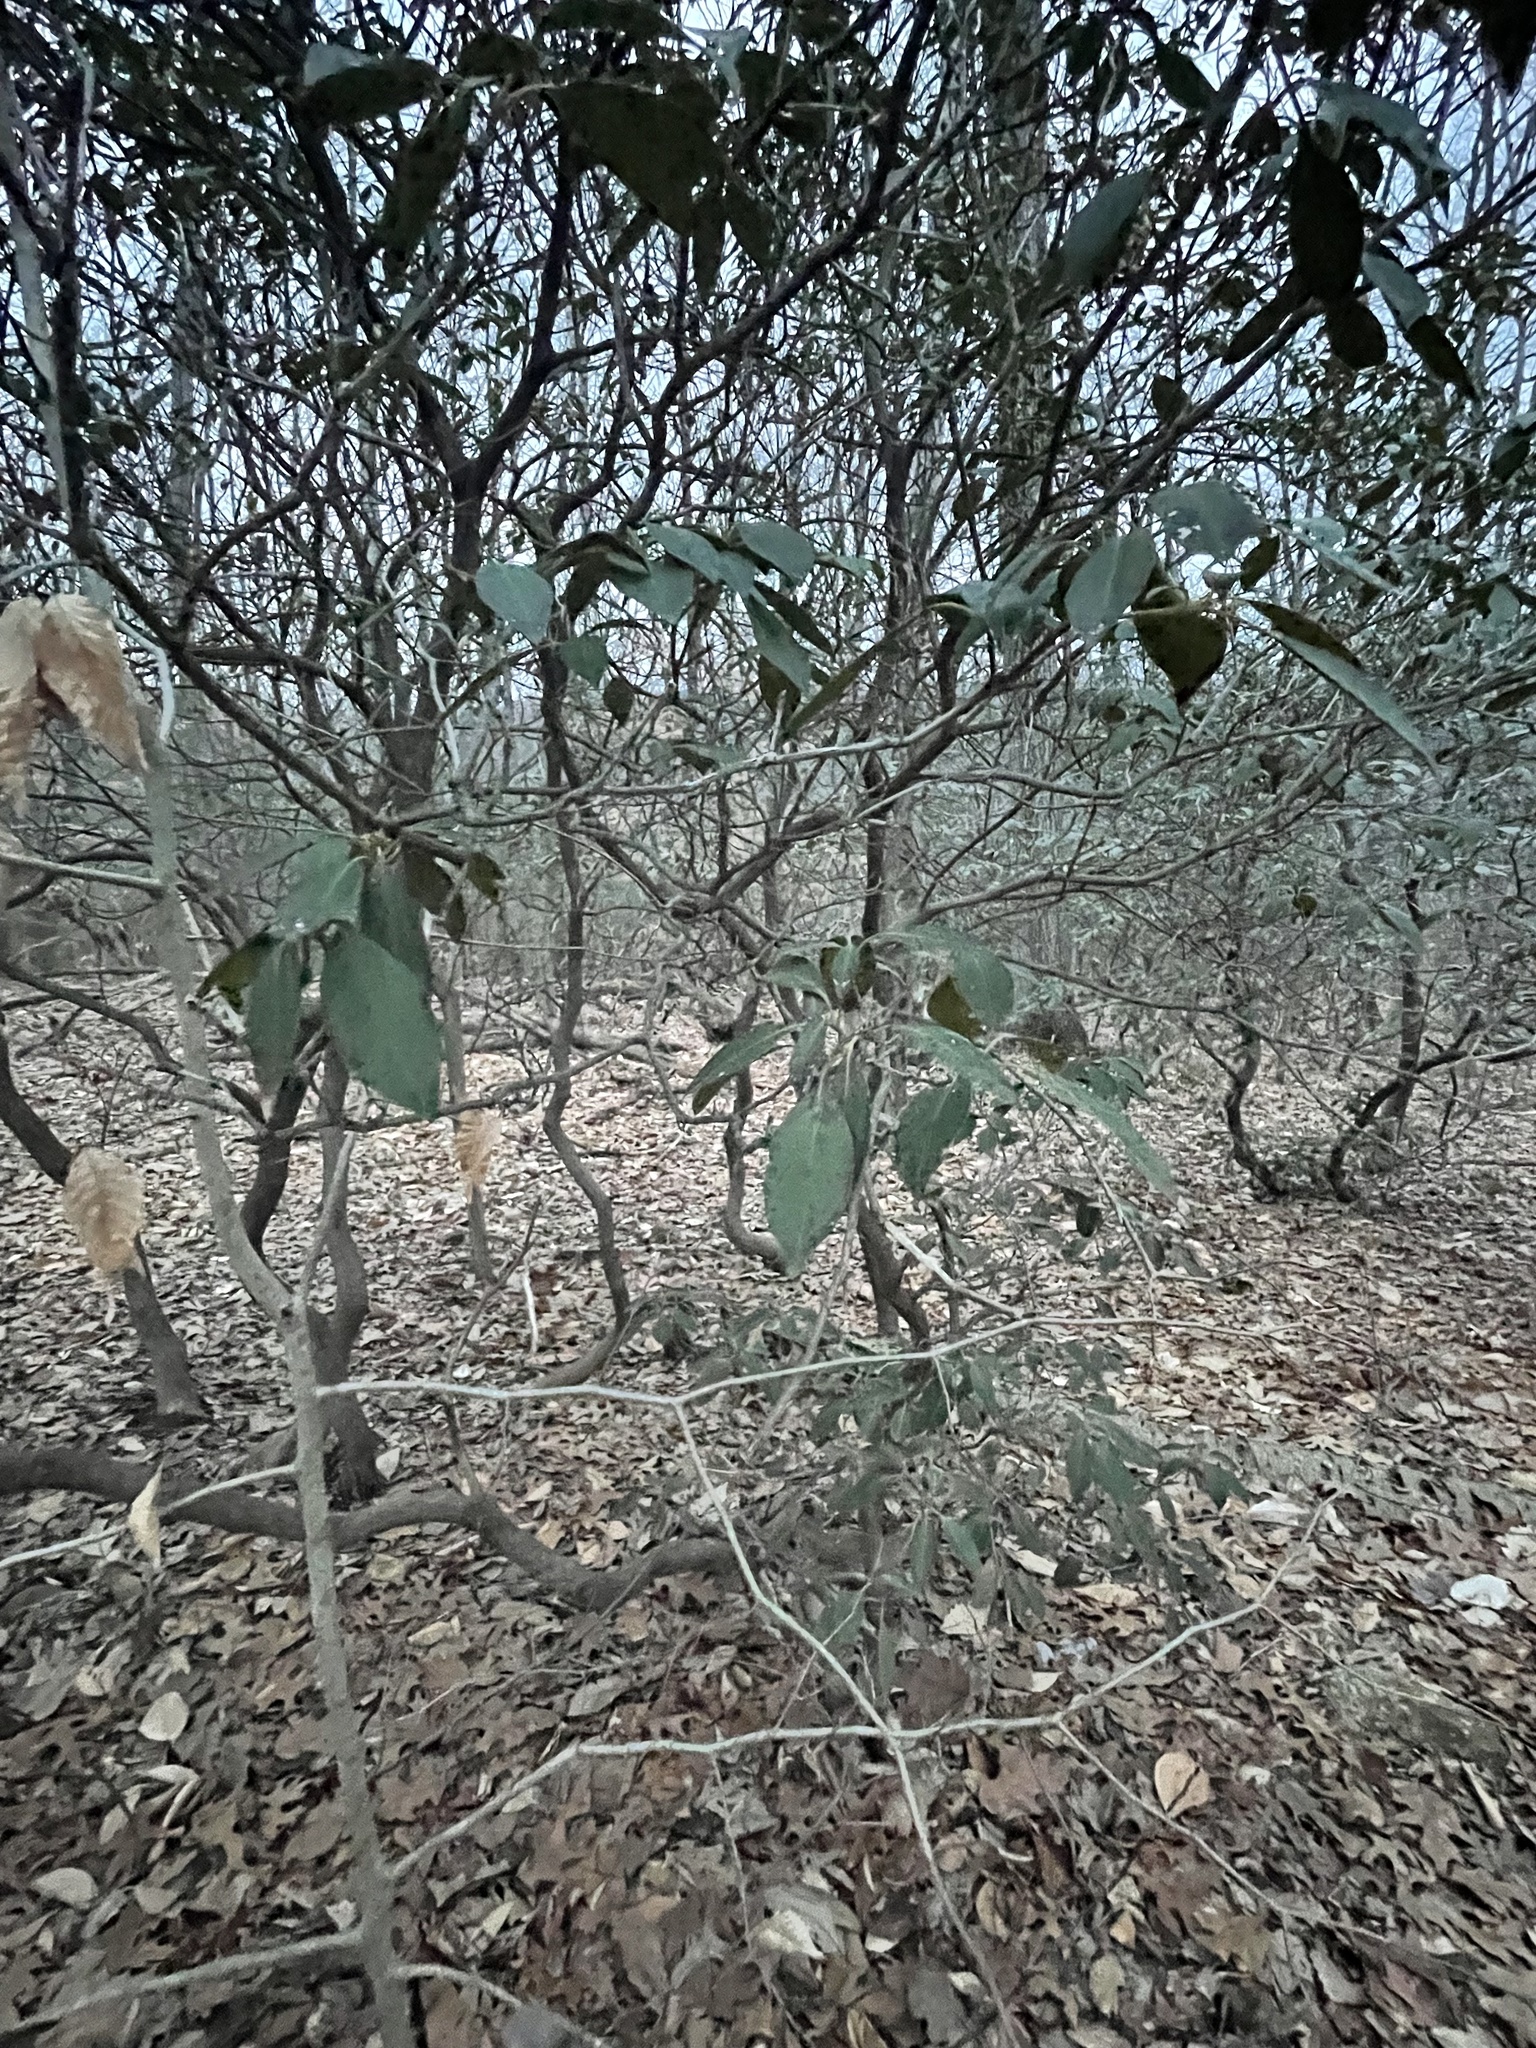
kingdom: Plantae
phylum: Tracheophyta
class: Magnoliopsida
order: Ericales
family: Ericaceae
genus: Kalmia
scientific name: Kalmia latifolia
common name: Mountain-laurel
